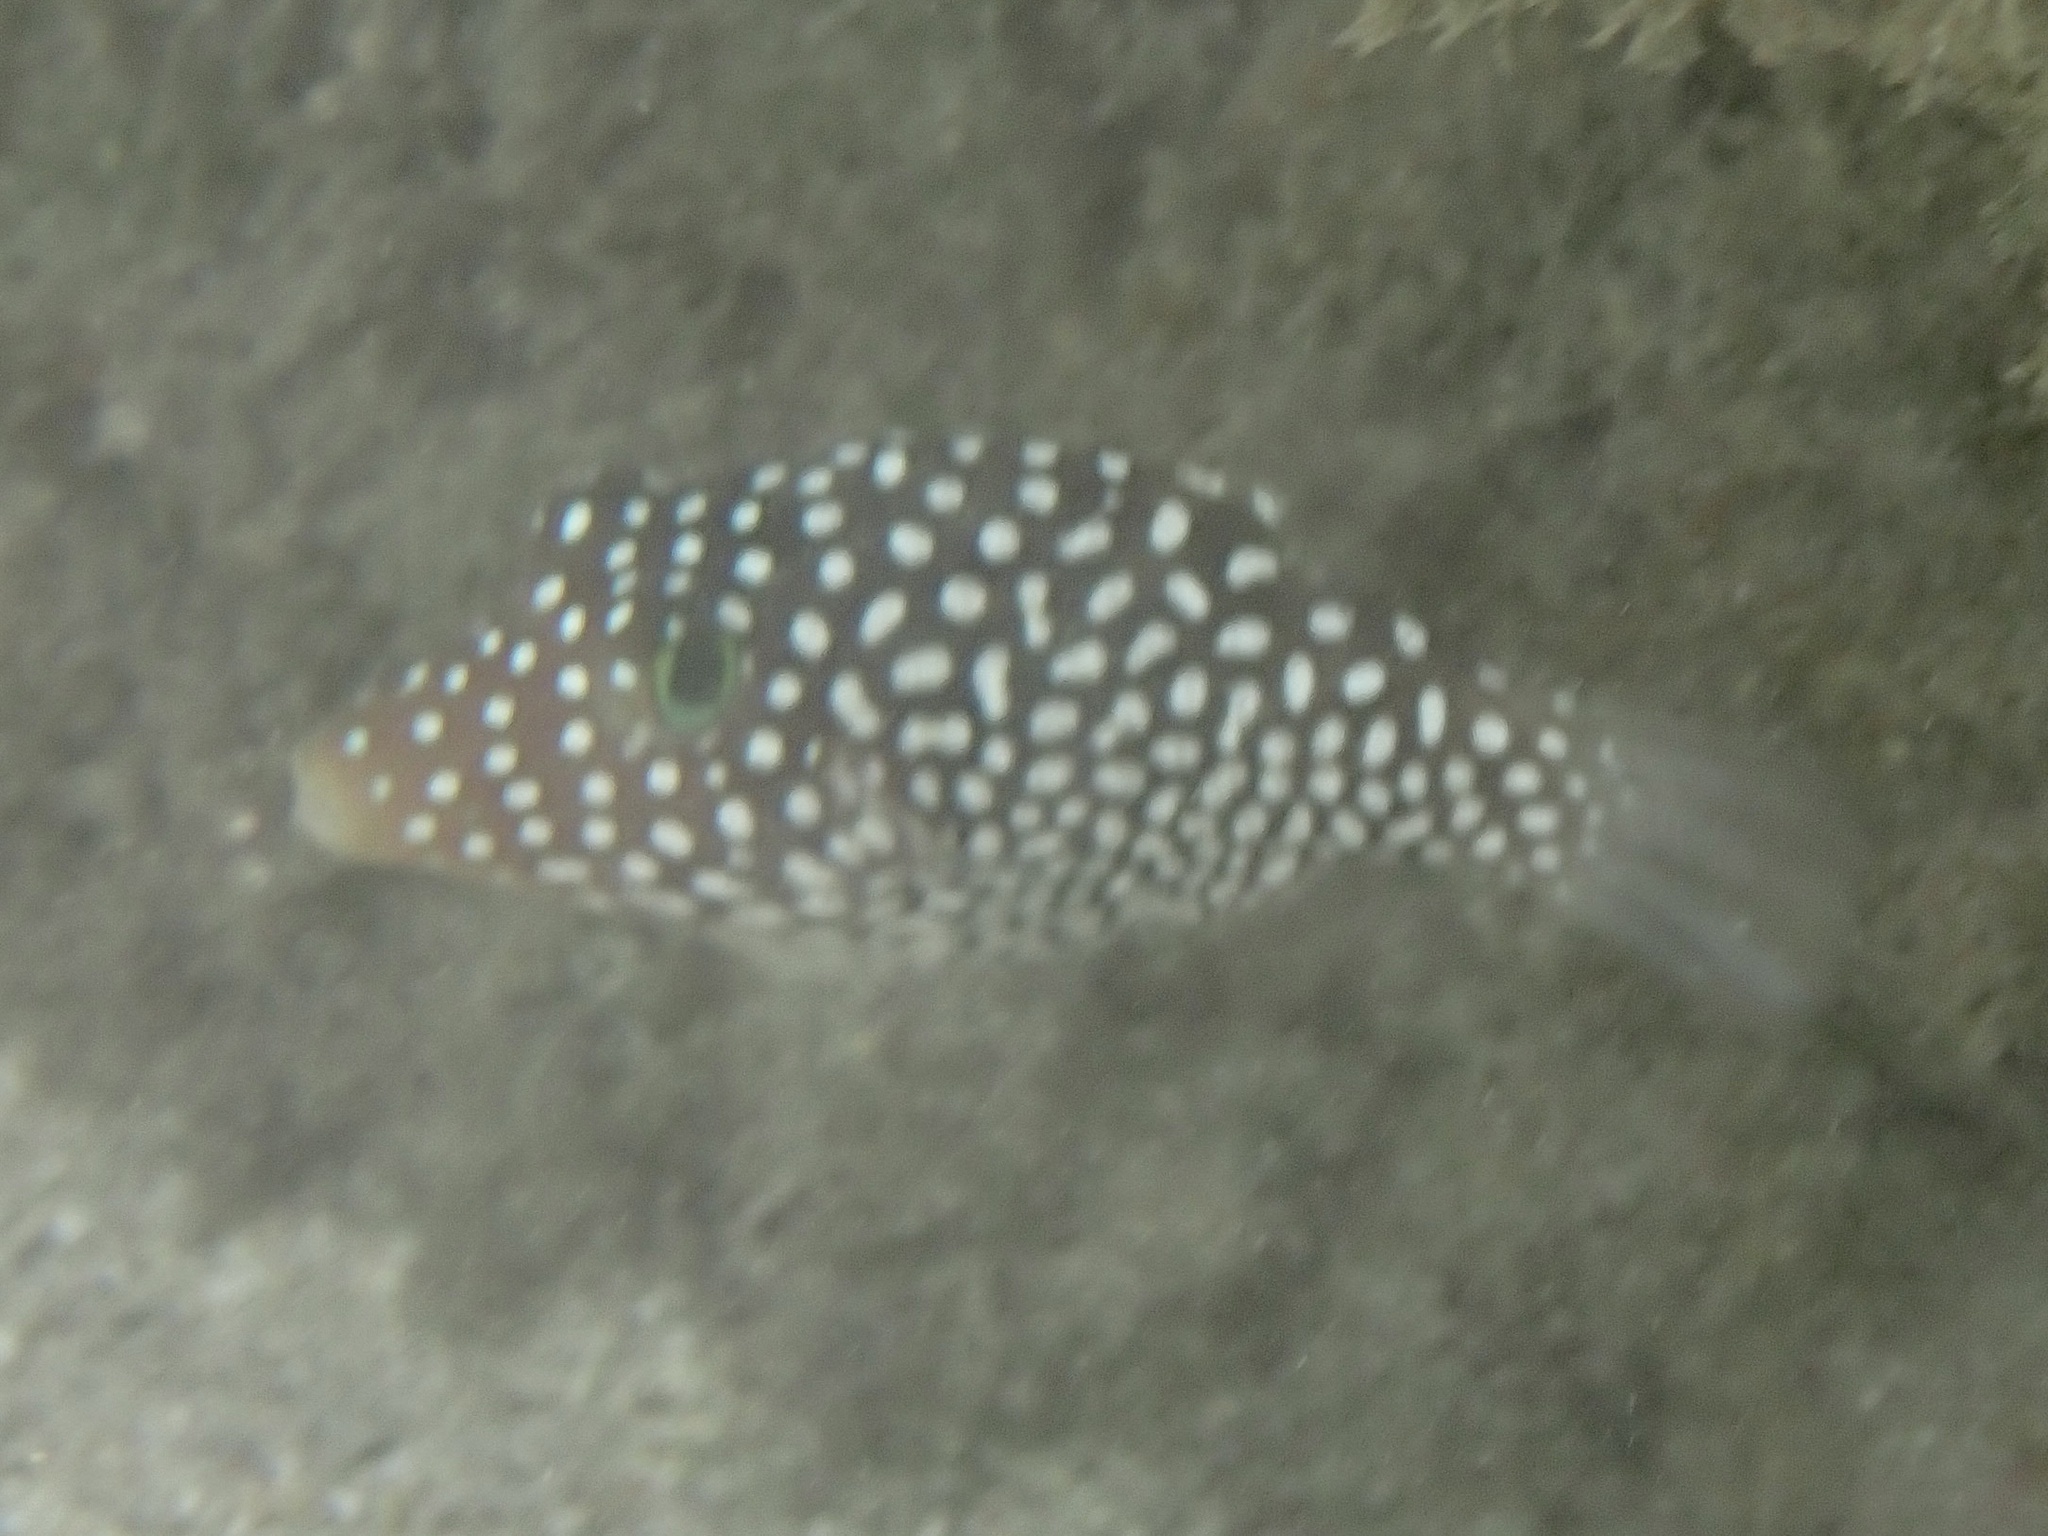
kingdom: Animalia
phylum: Chordata
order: Tetraodontiformes
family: Tetraodontidae
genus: Canthigaster
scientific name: Canthigaster jactator
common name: Hawaiian whitespotted toby
